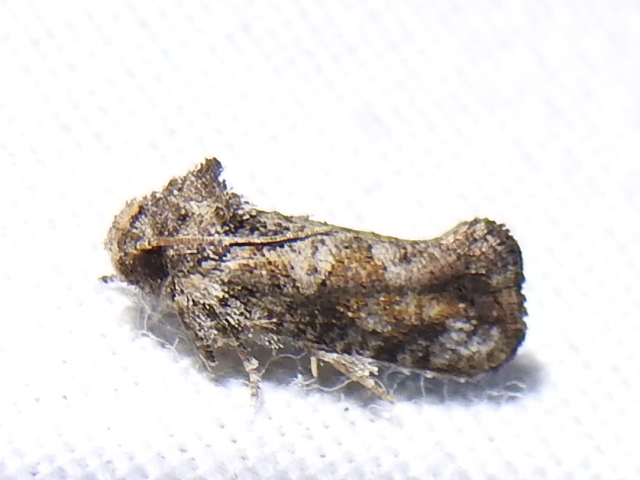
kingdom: Animalia
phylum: Arthropoda
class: Insecta
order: Lepidoptera
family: Tineidae
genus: Acrolophus
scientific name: Acrolophus piger
